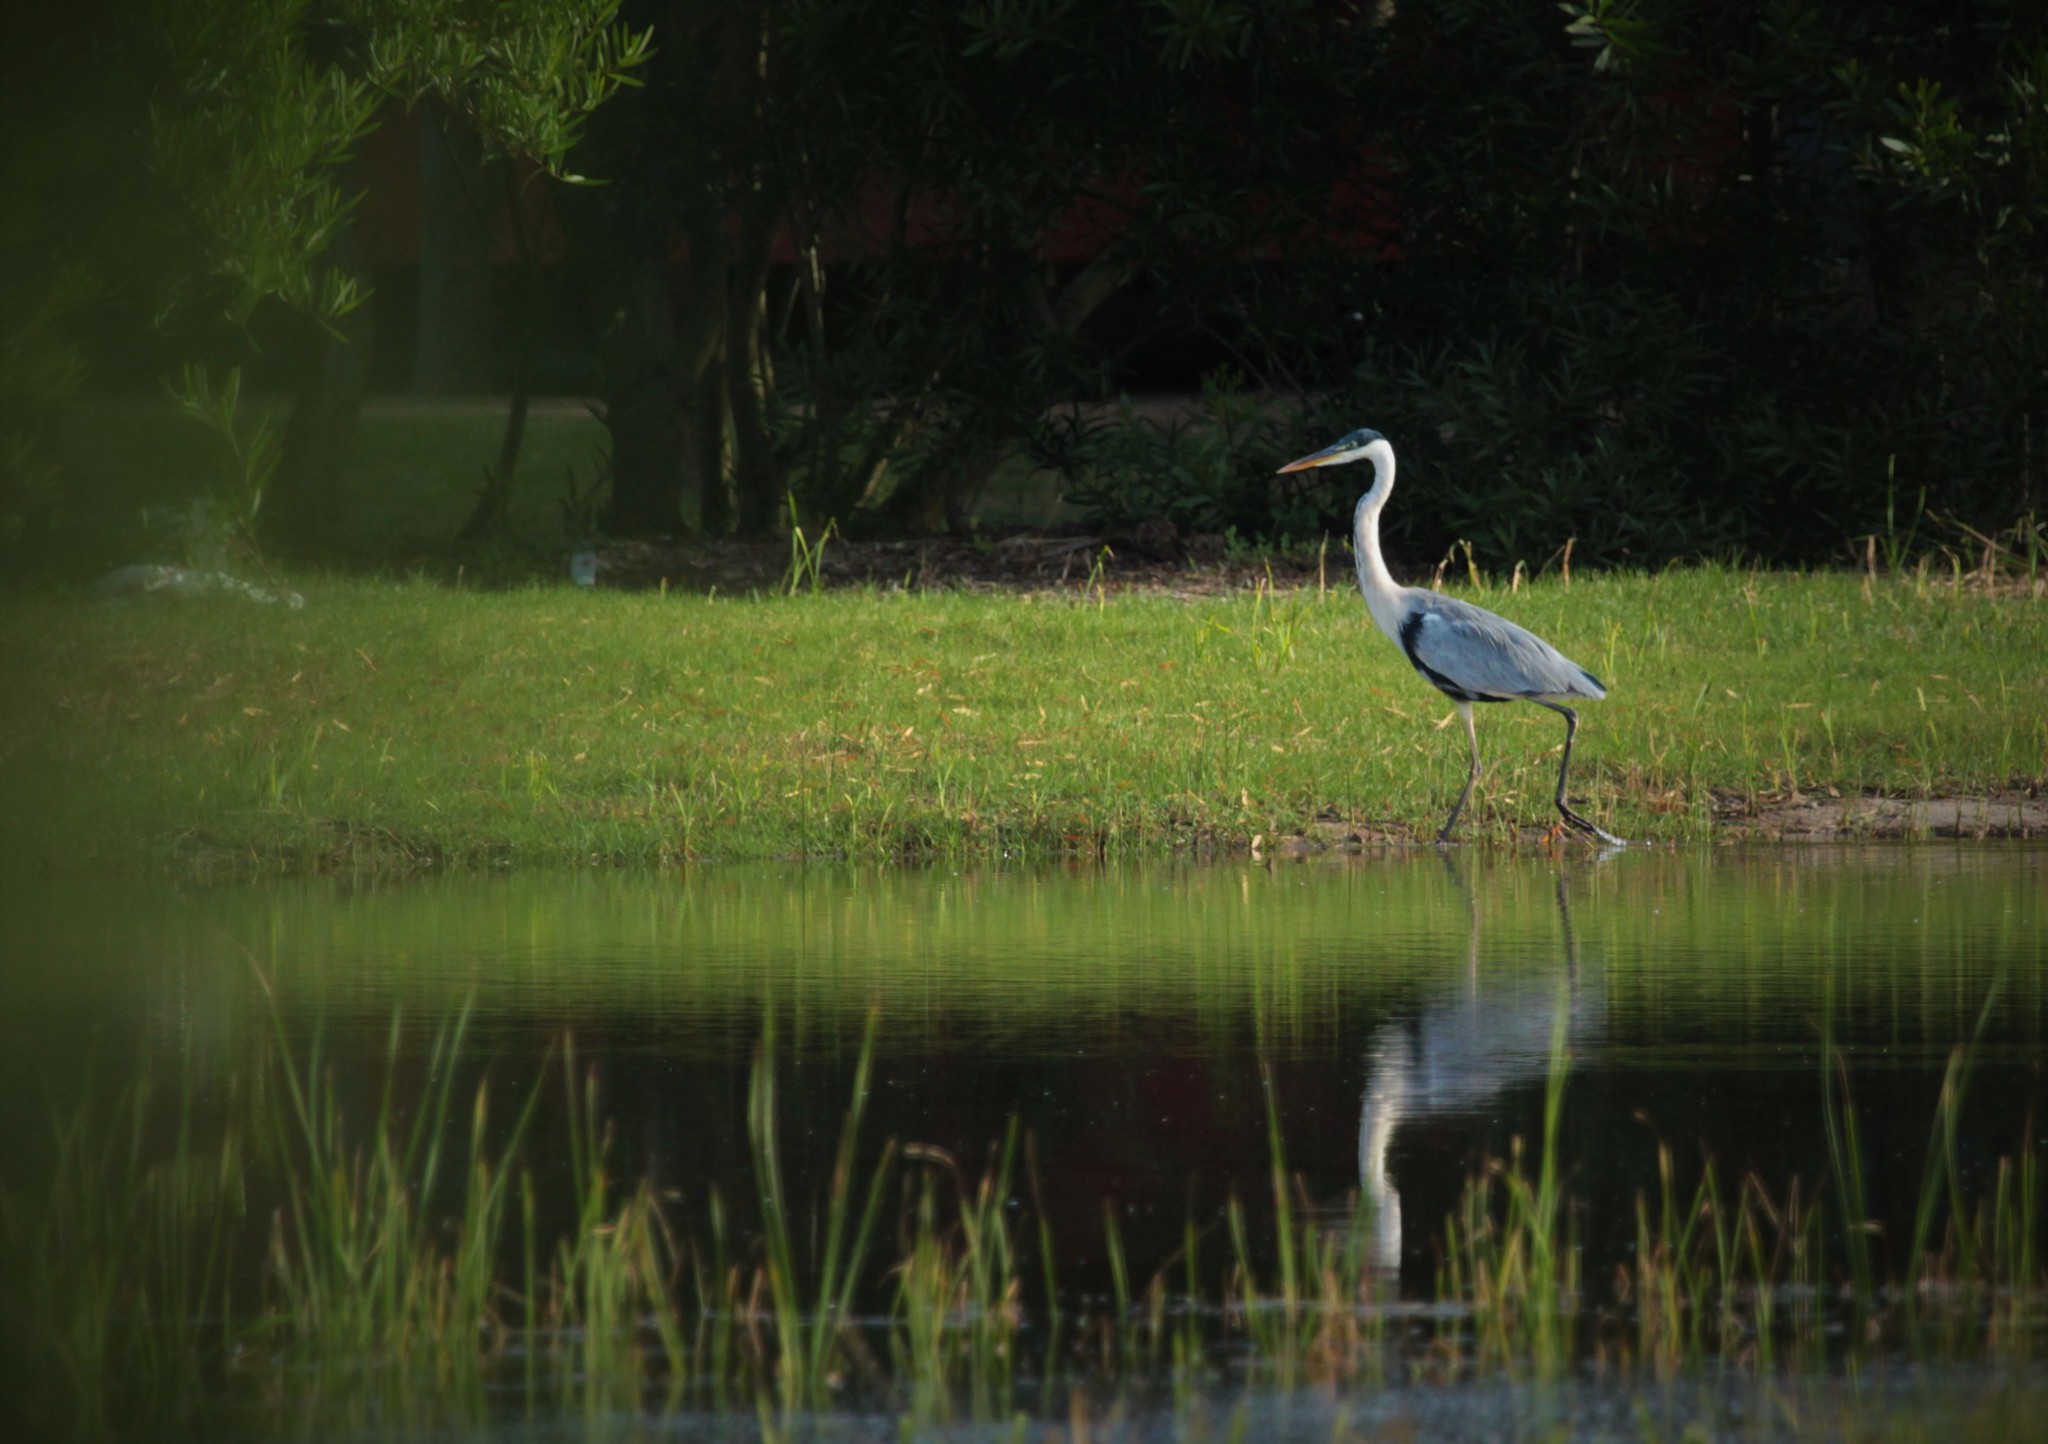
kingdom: Animalia
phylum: Chordata
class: Aves
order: Pelecaniformes
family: Ardeidae
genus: Ardea
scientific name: Ardea cocoi
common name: Cocoi heron
